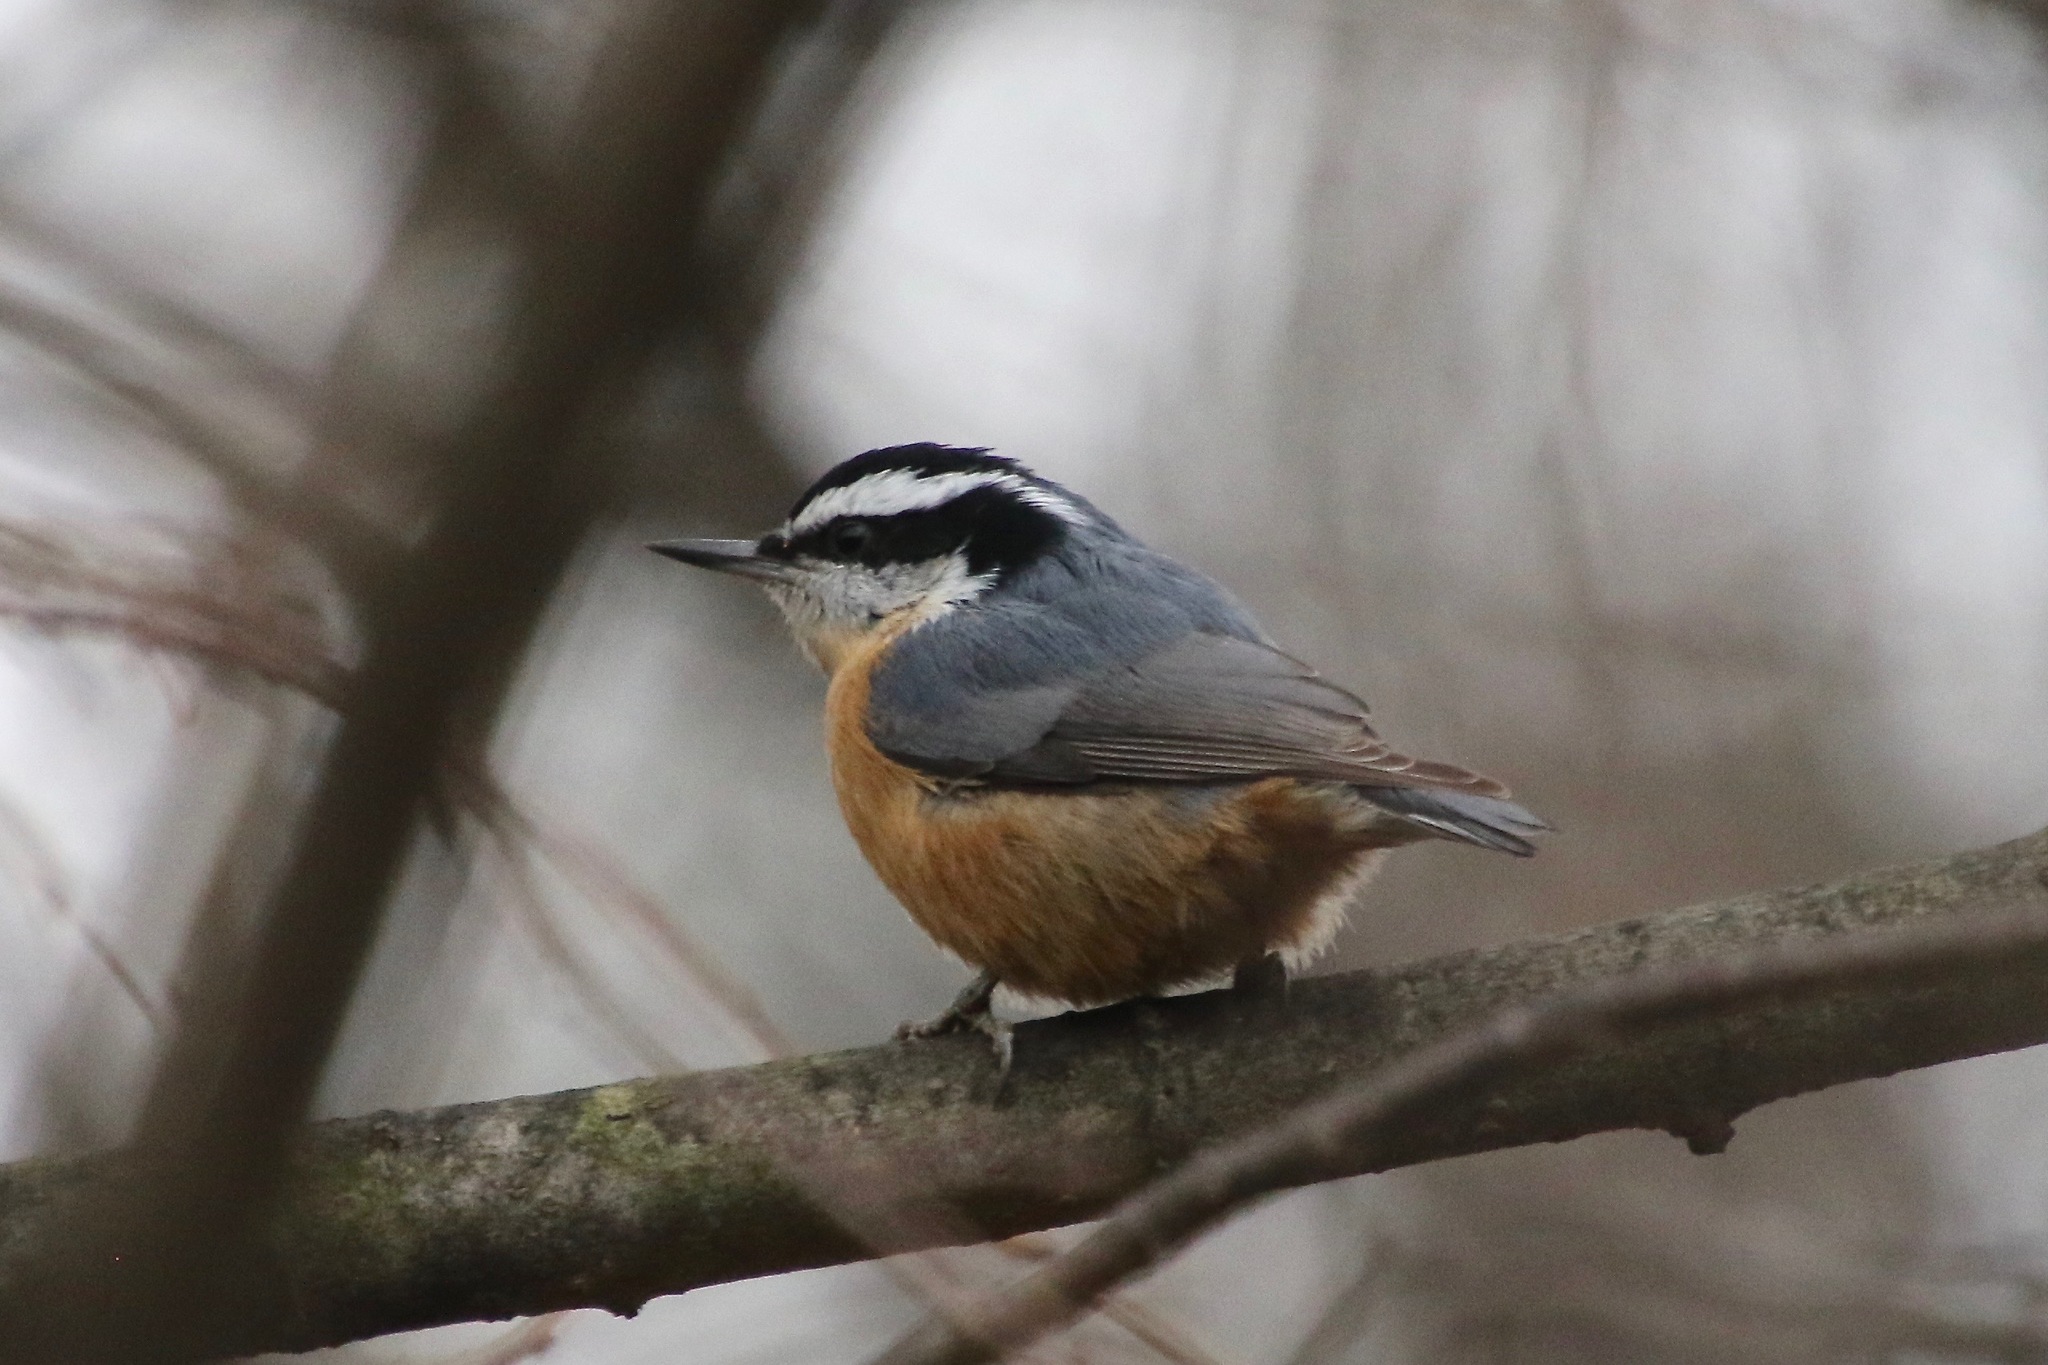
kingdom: Animalia
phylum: Chordata
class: Aves
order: Passeriformes
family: Sittidae
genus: Sitta
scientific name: Sitta canadensis
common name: Red-breasted nuthatch
